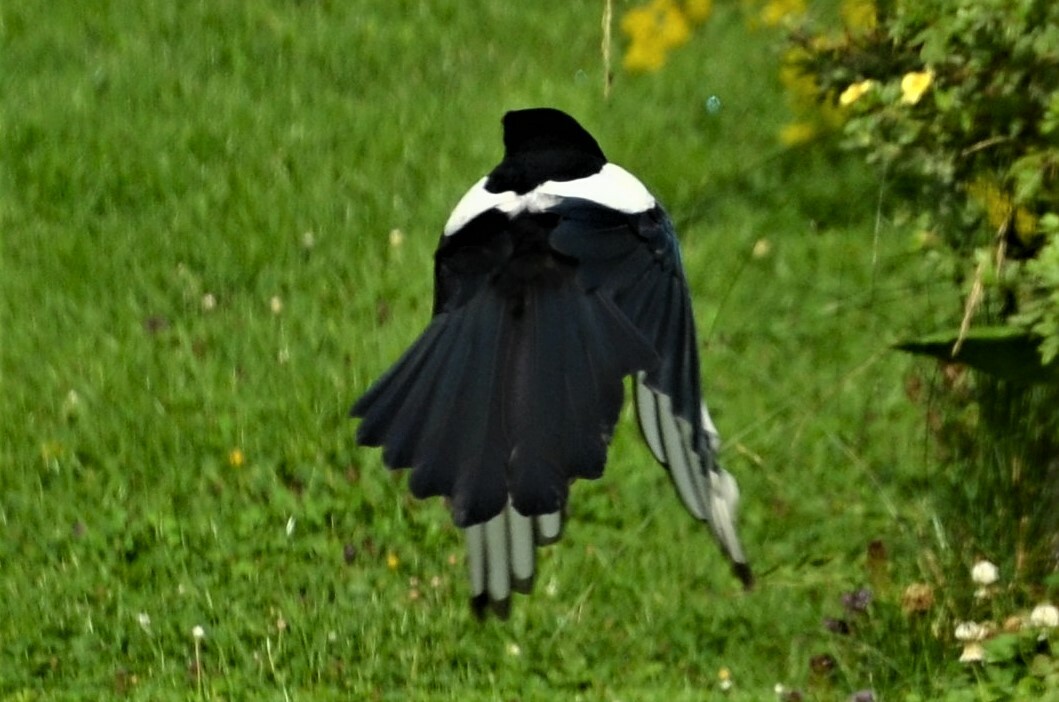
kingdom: Animalia
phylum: Chordata
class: Aves
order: Passeriformes
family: Corvidae
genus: Pica
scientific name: Pica pica
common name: Eurasian magpie
